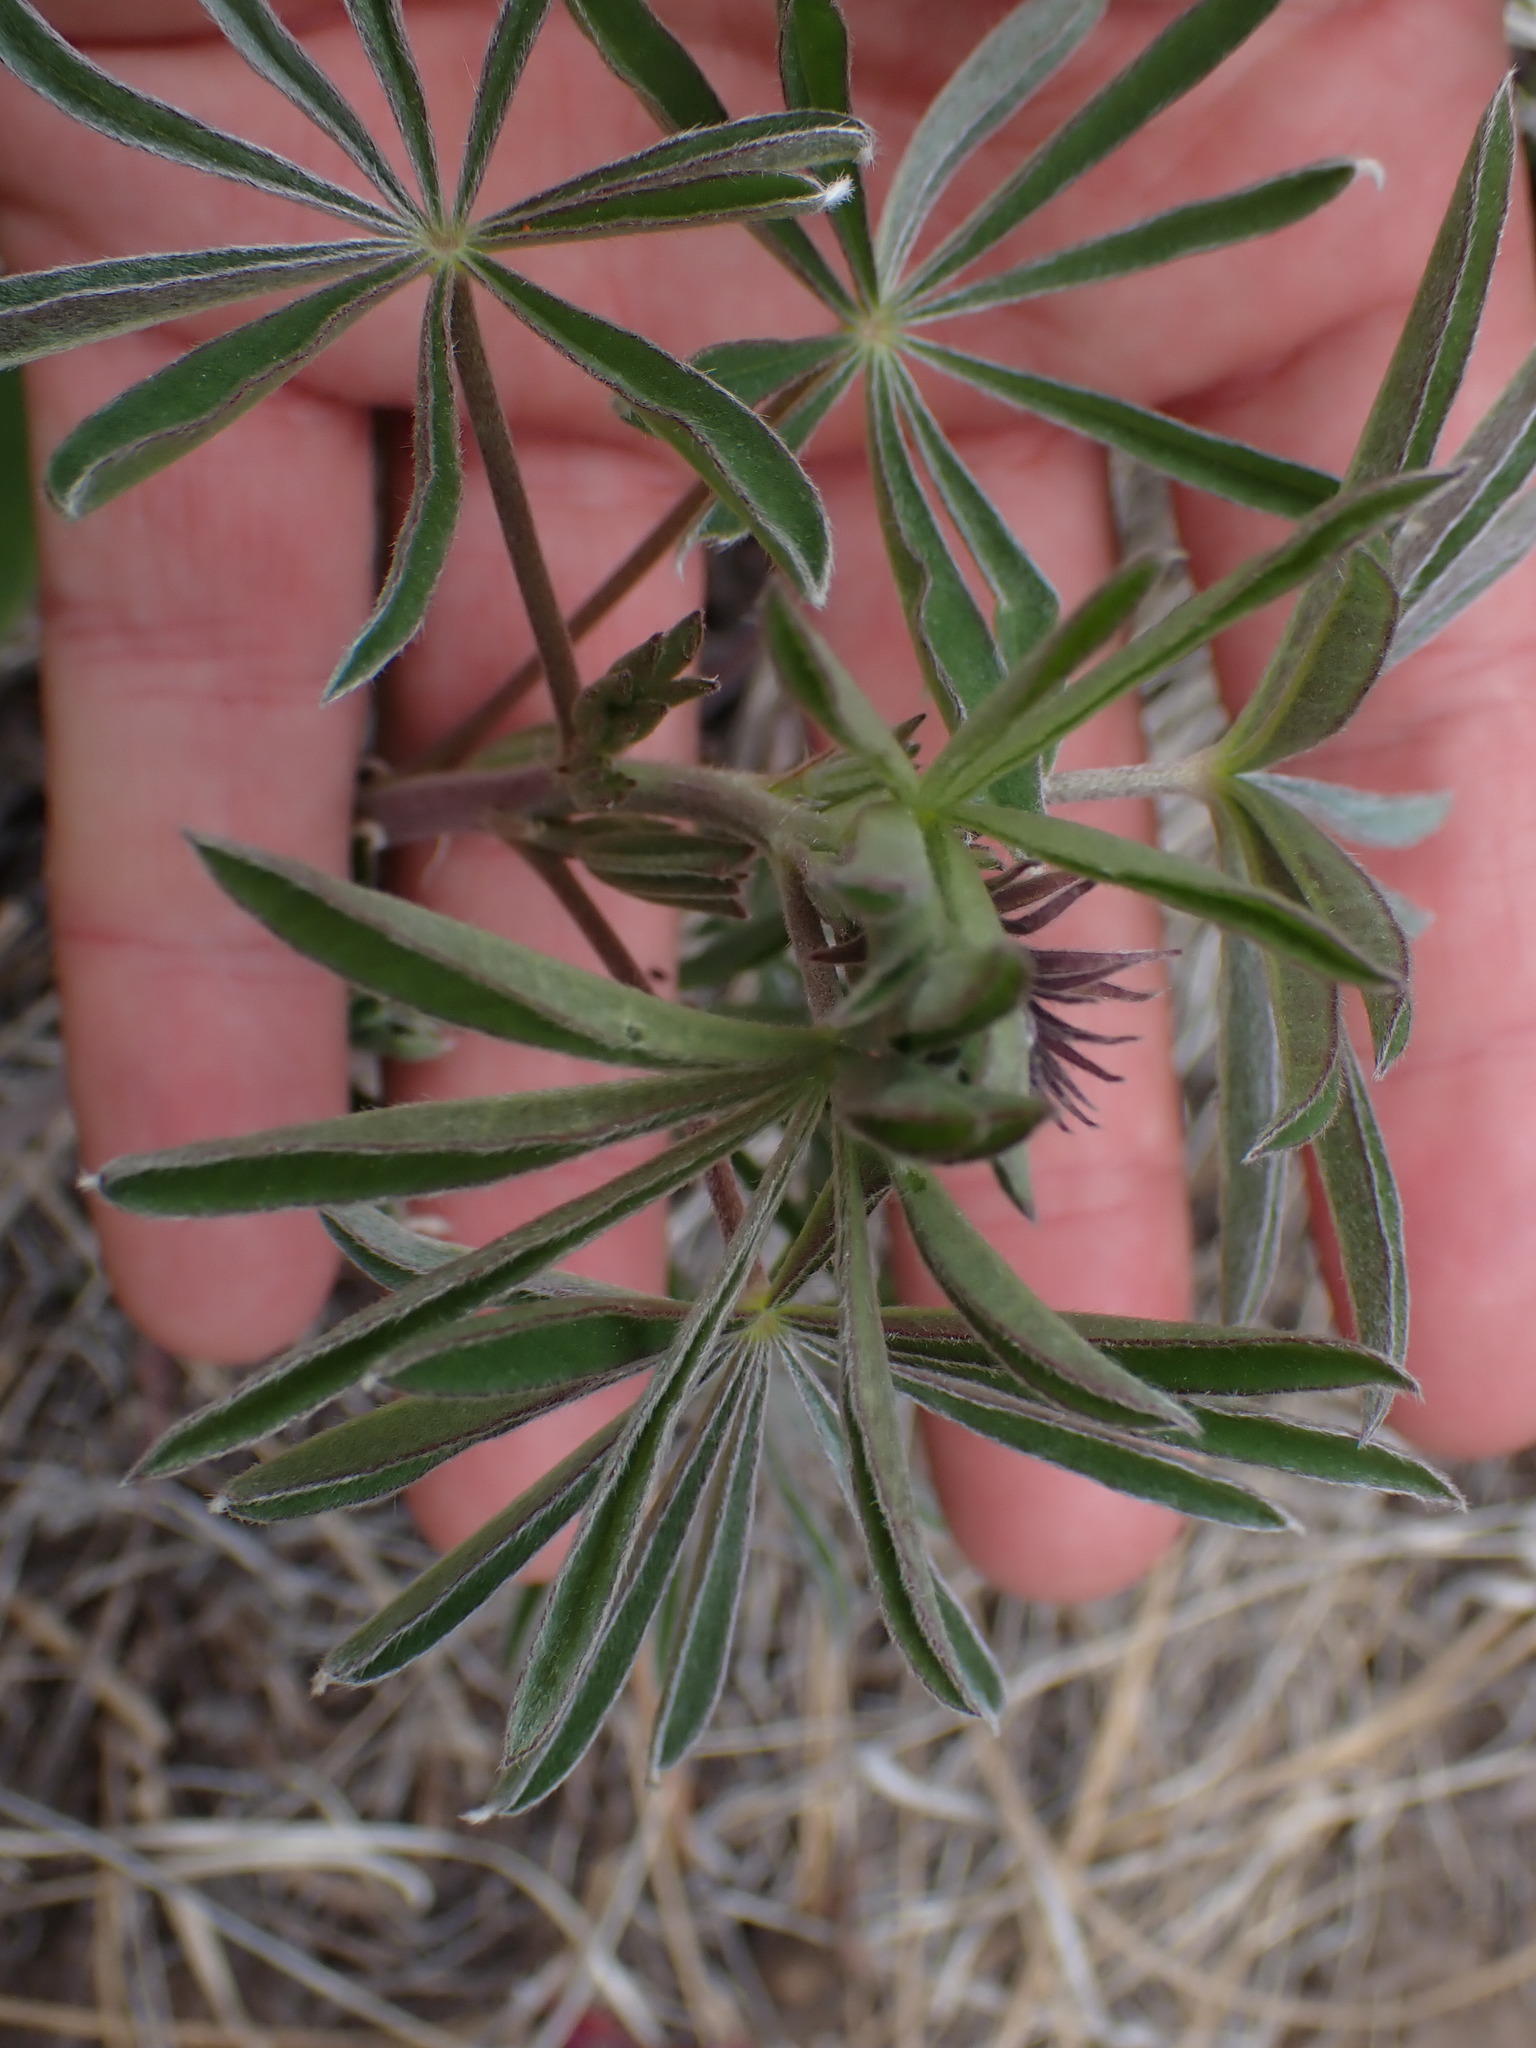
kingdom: Plantae
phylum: Tracheophyta
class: Magnoliopsida
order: Fabales
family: Fabaceae
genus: Lupinus
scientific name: Lupinus sericeus
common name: Silky lupine
